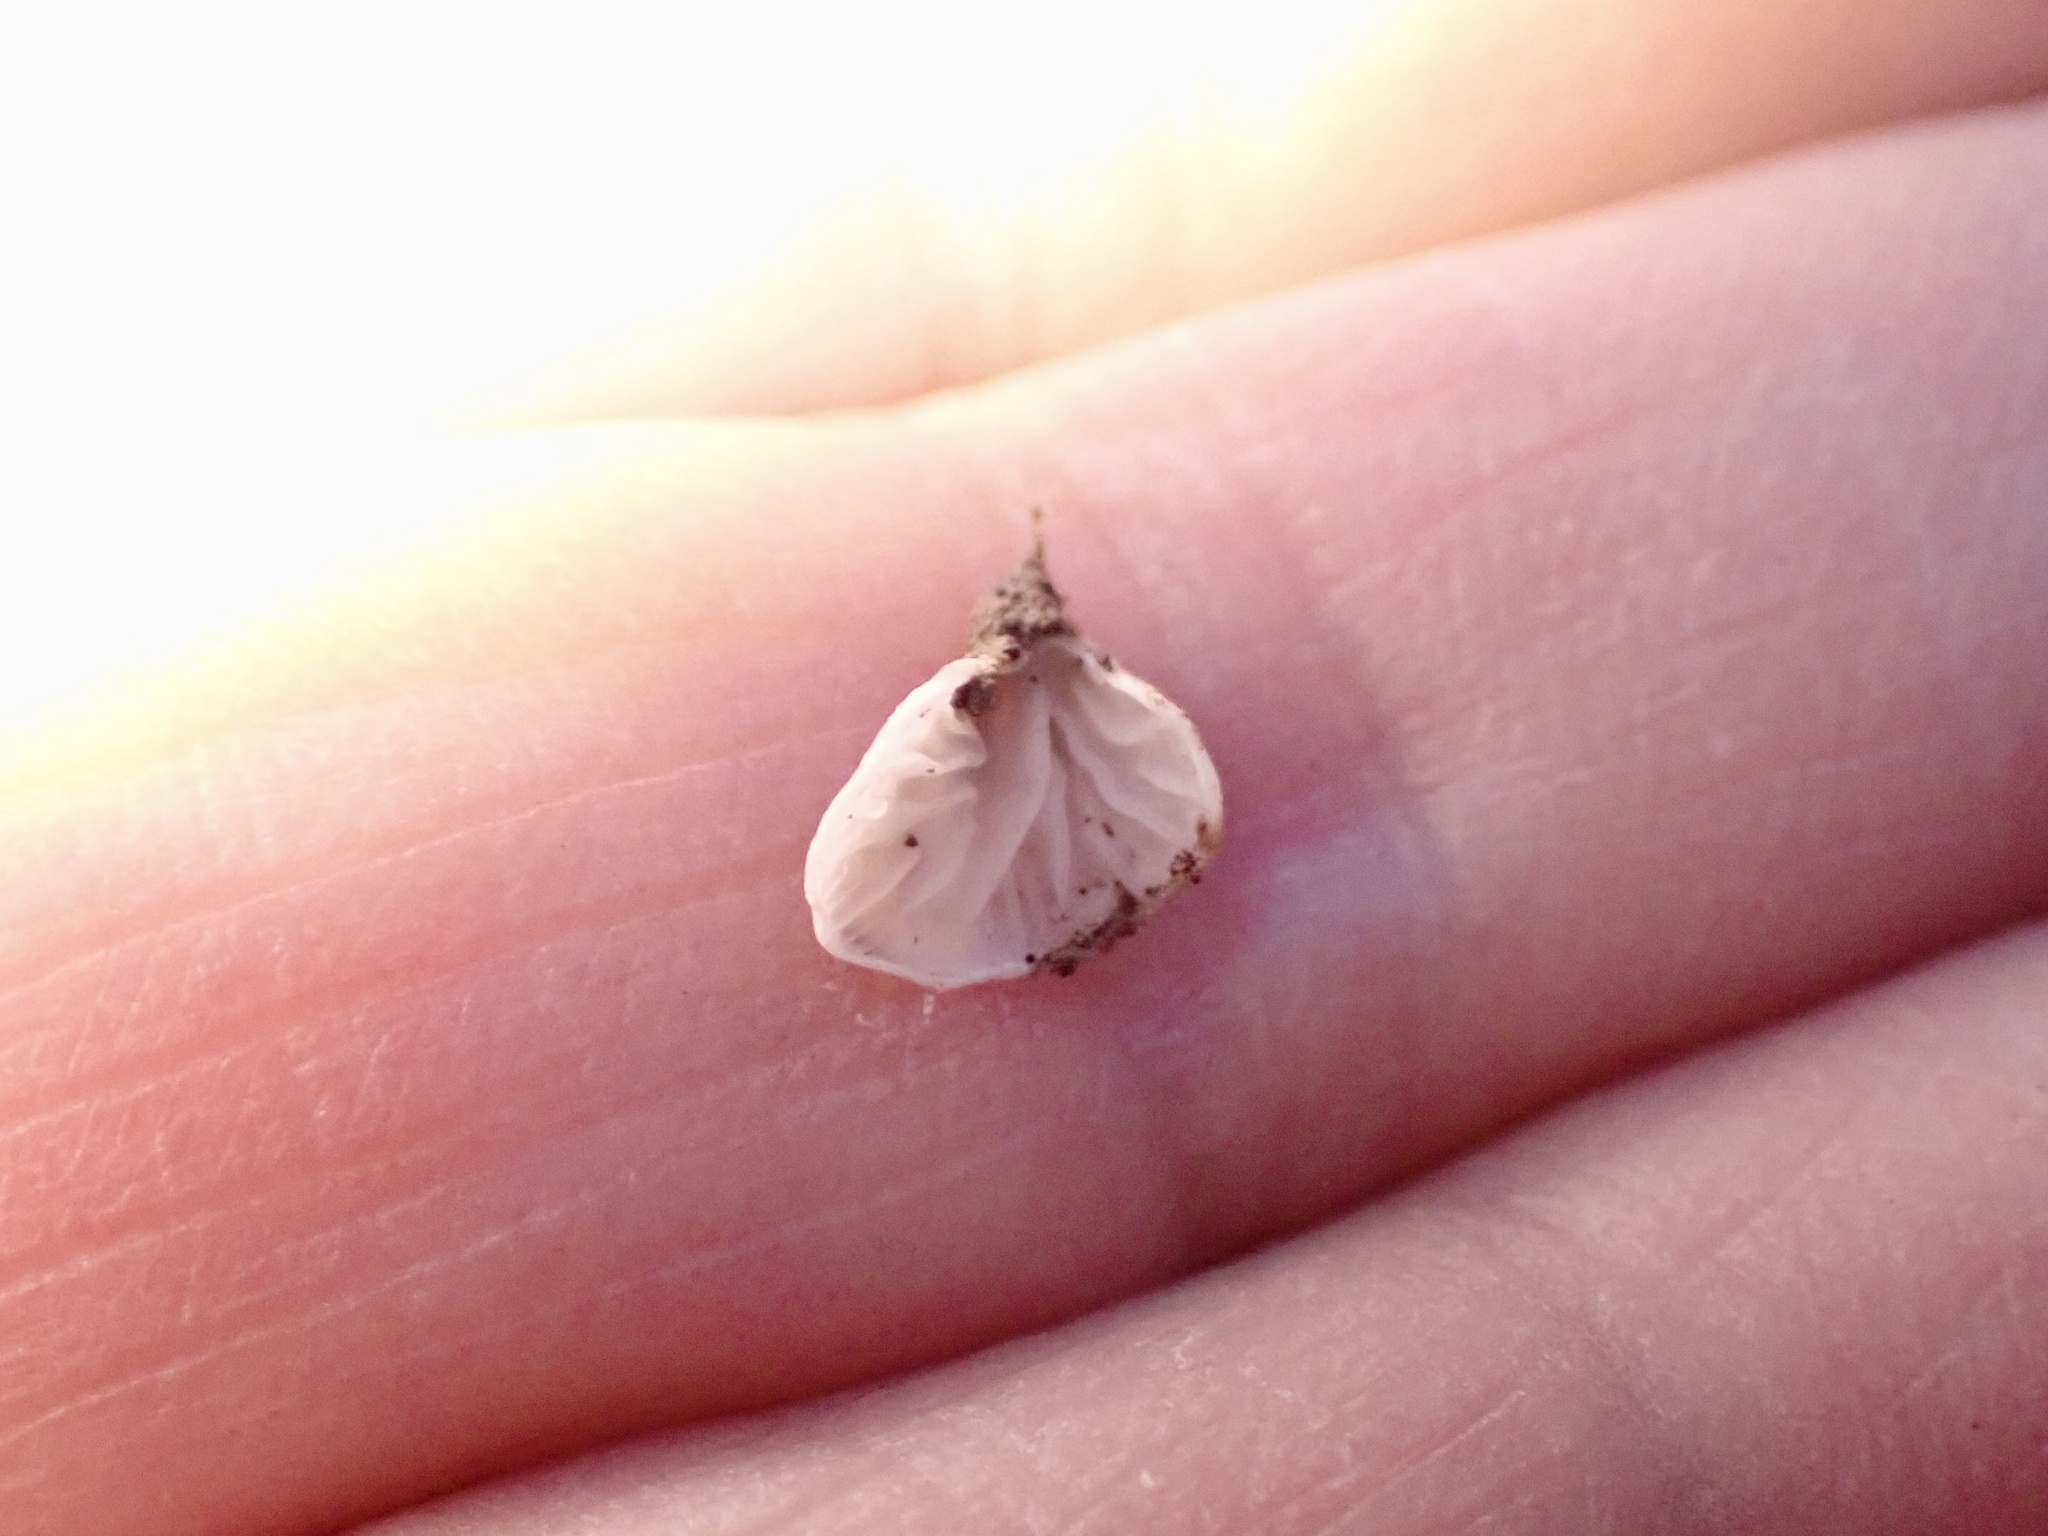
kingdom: Fungi
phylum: Basidiomycota
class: Agaricomycetes
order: Agaricales
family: Tricholomataceae
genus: Rimbachia
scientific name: Rimbachia bryophila
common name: Veined mossear
